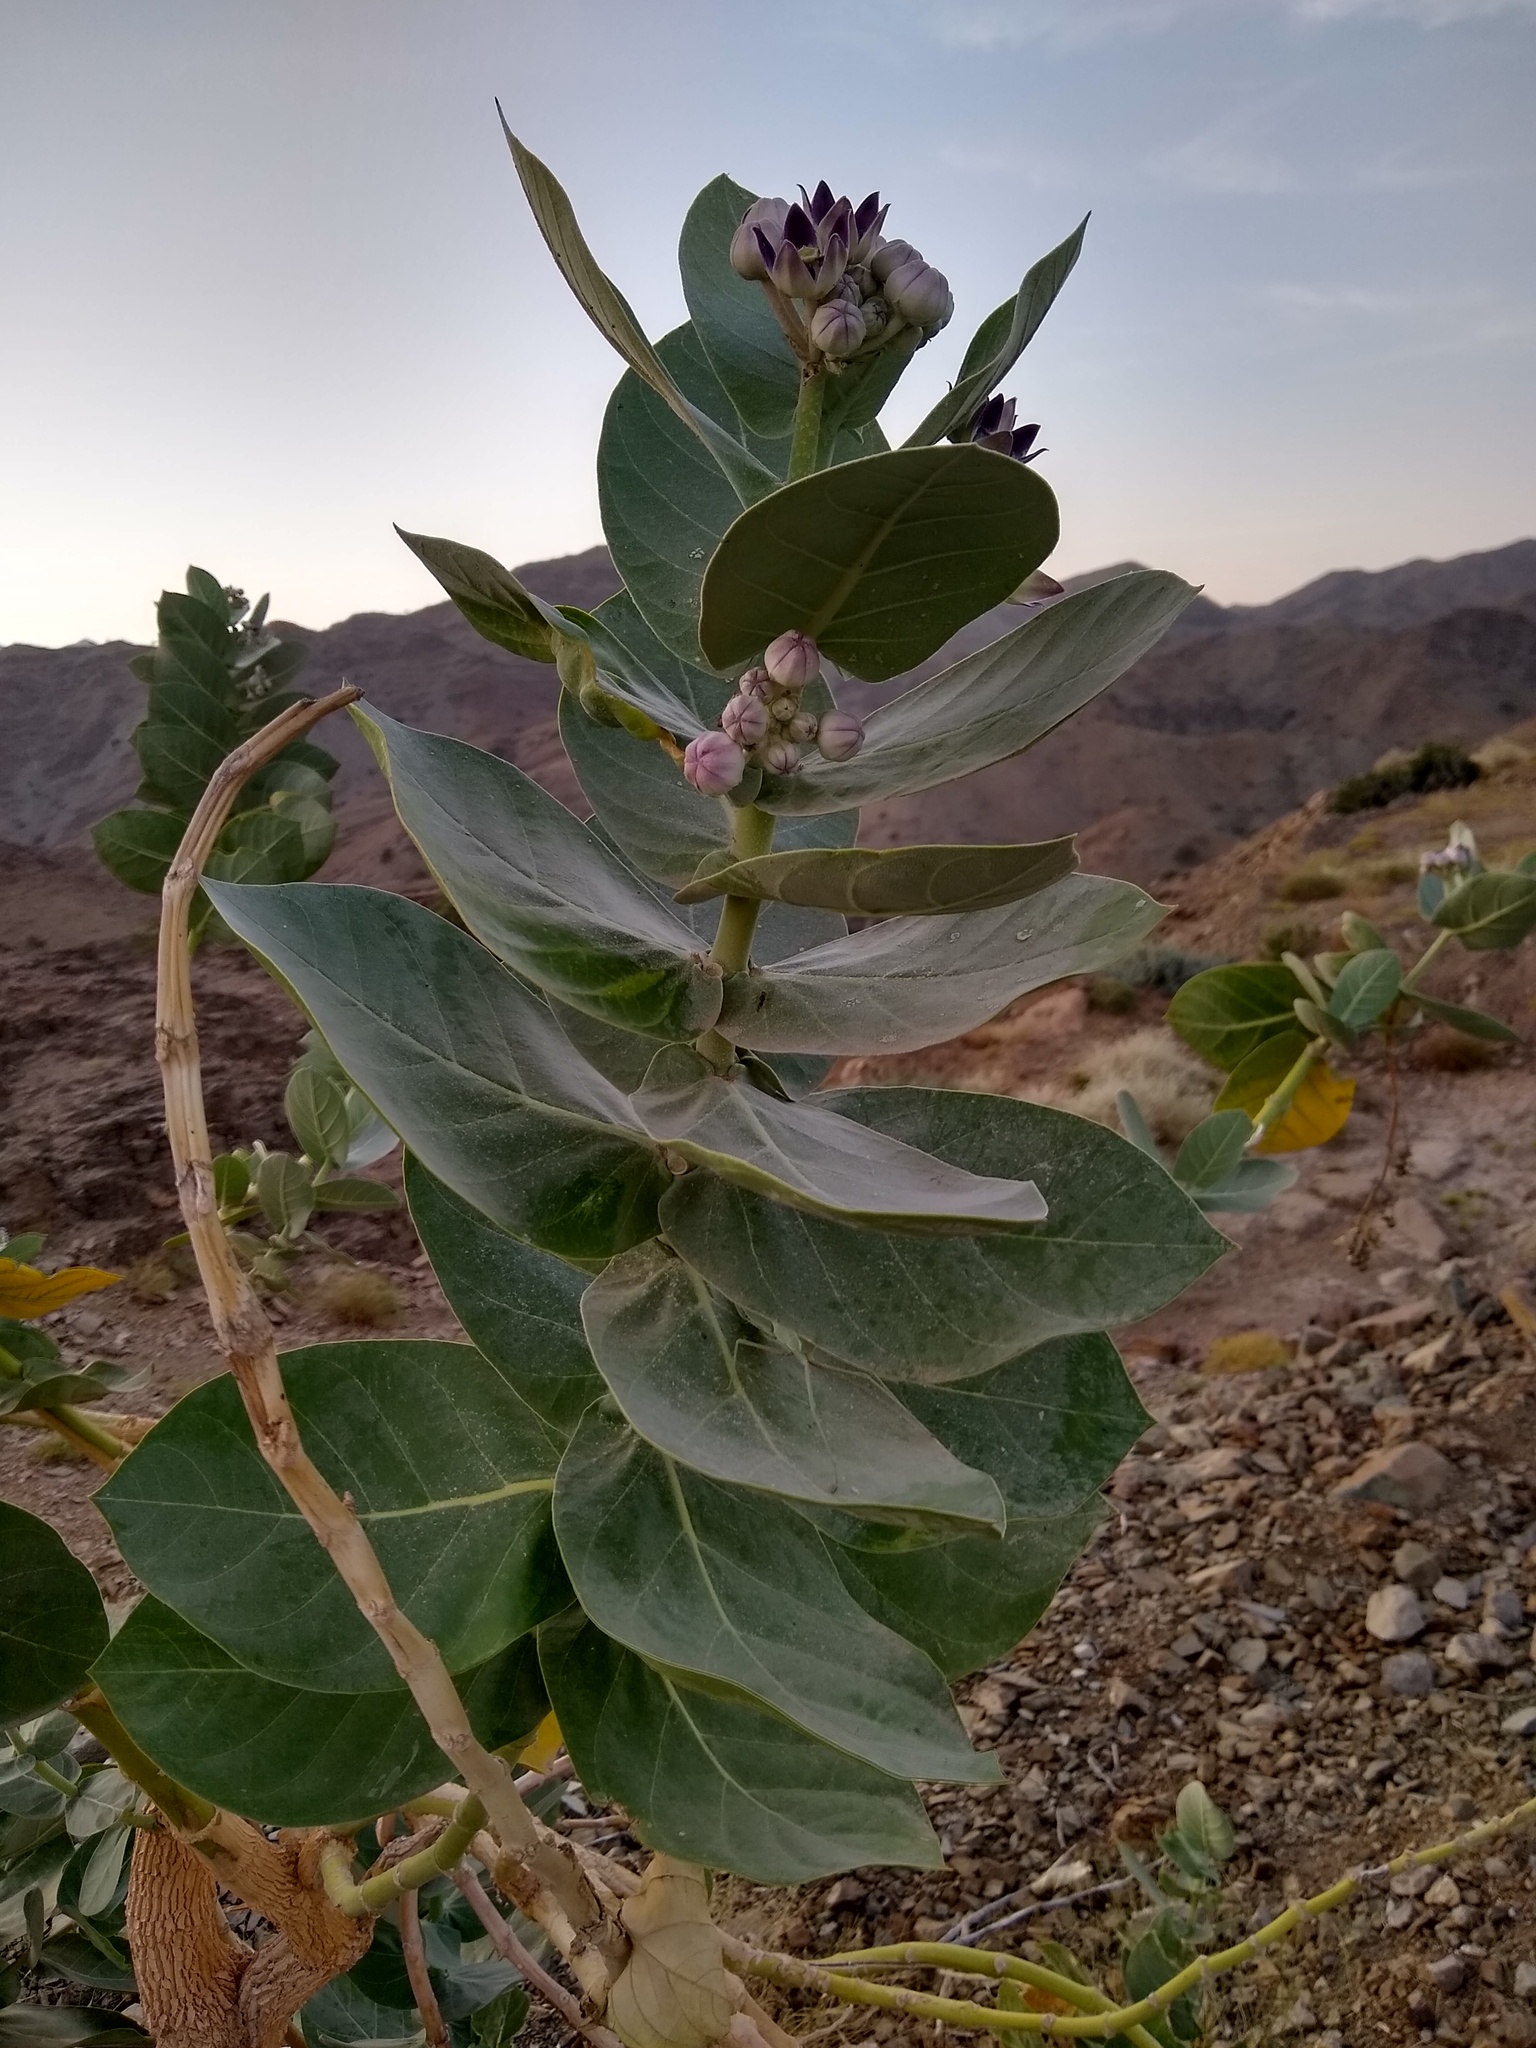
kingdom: Plantae
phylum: Tracheophyta
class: Magnoliopsida
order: Gentianales
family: Apocynaceae
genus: Calotropis
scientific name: Calotropis procera
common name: Roostertree
